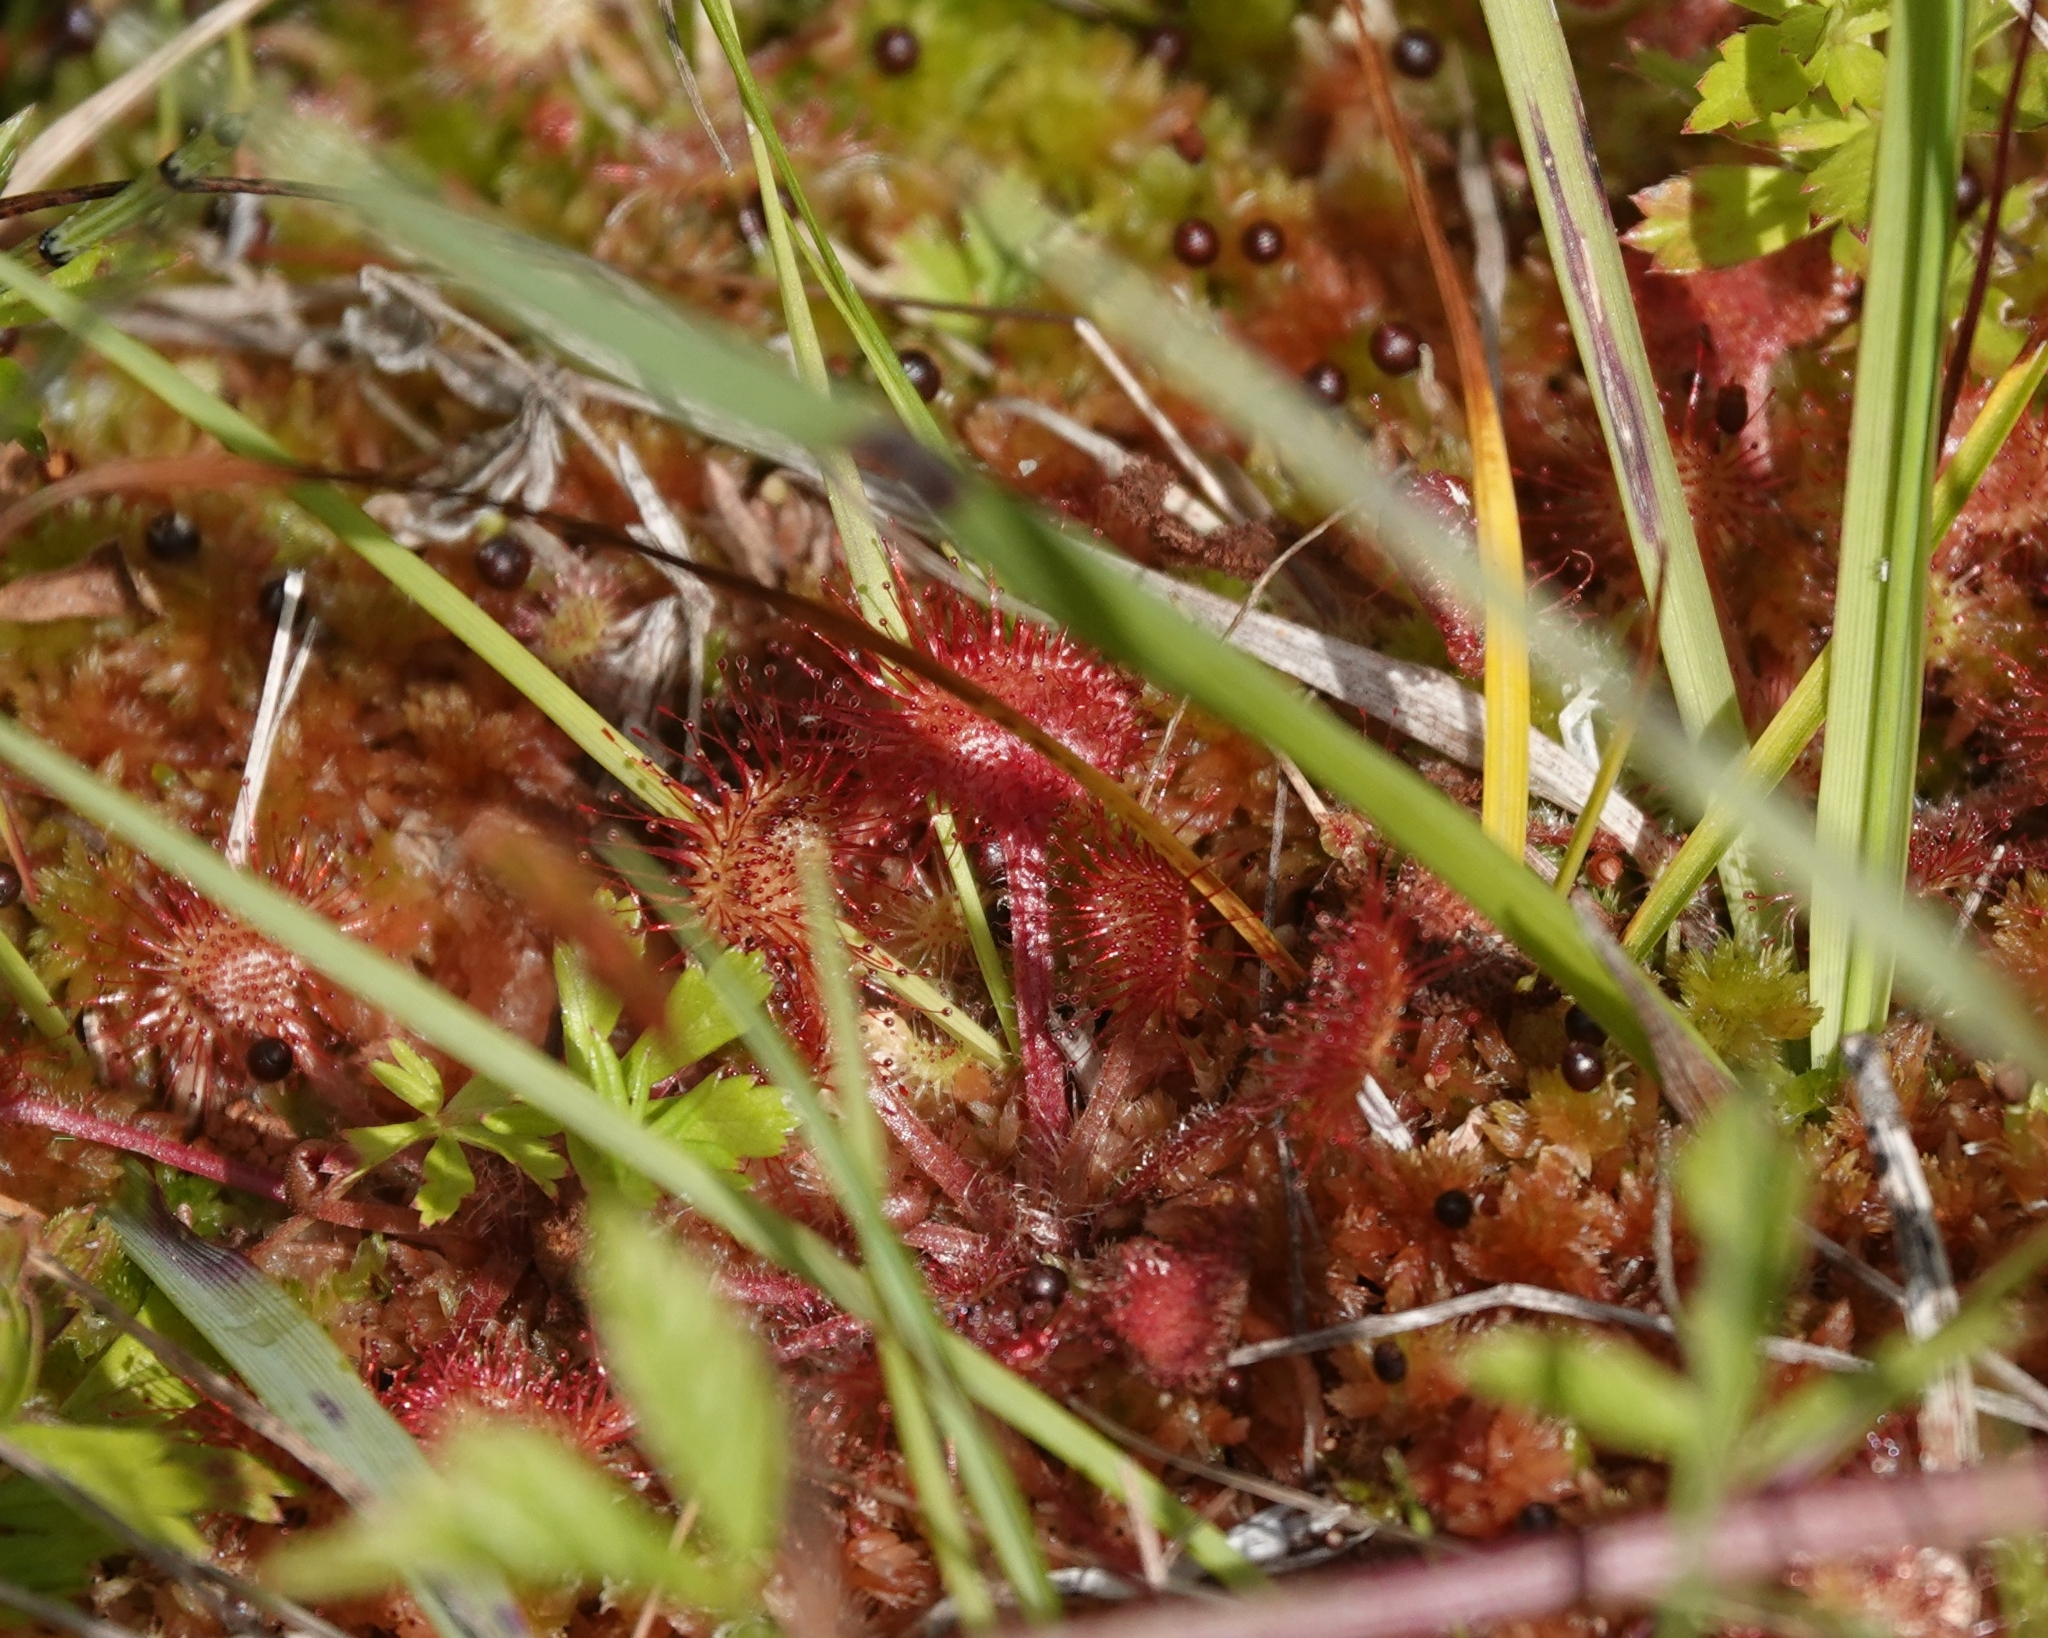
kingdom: Plantae
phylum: Tracheophyta
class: Magnoliopsida
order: Caryophyllales
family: Droseraceae
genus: Drosera
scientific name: Drosera rotundifolia
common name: Round-leaved sundew
